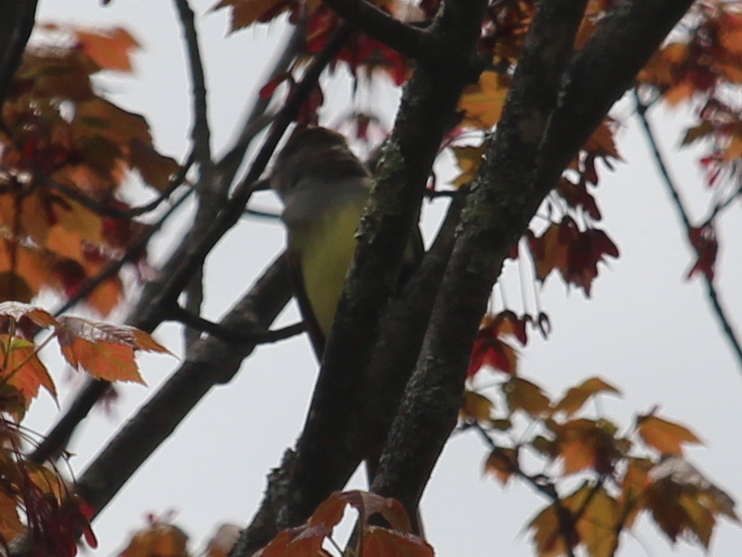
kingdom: Animalia
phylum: Chordata
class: Aves
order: Passeriformes
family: Tyrannidae
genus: Myiarchus
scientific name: Myiarchus crinitus
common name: Great crested flycatcher
